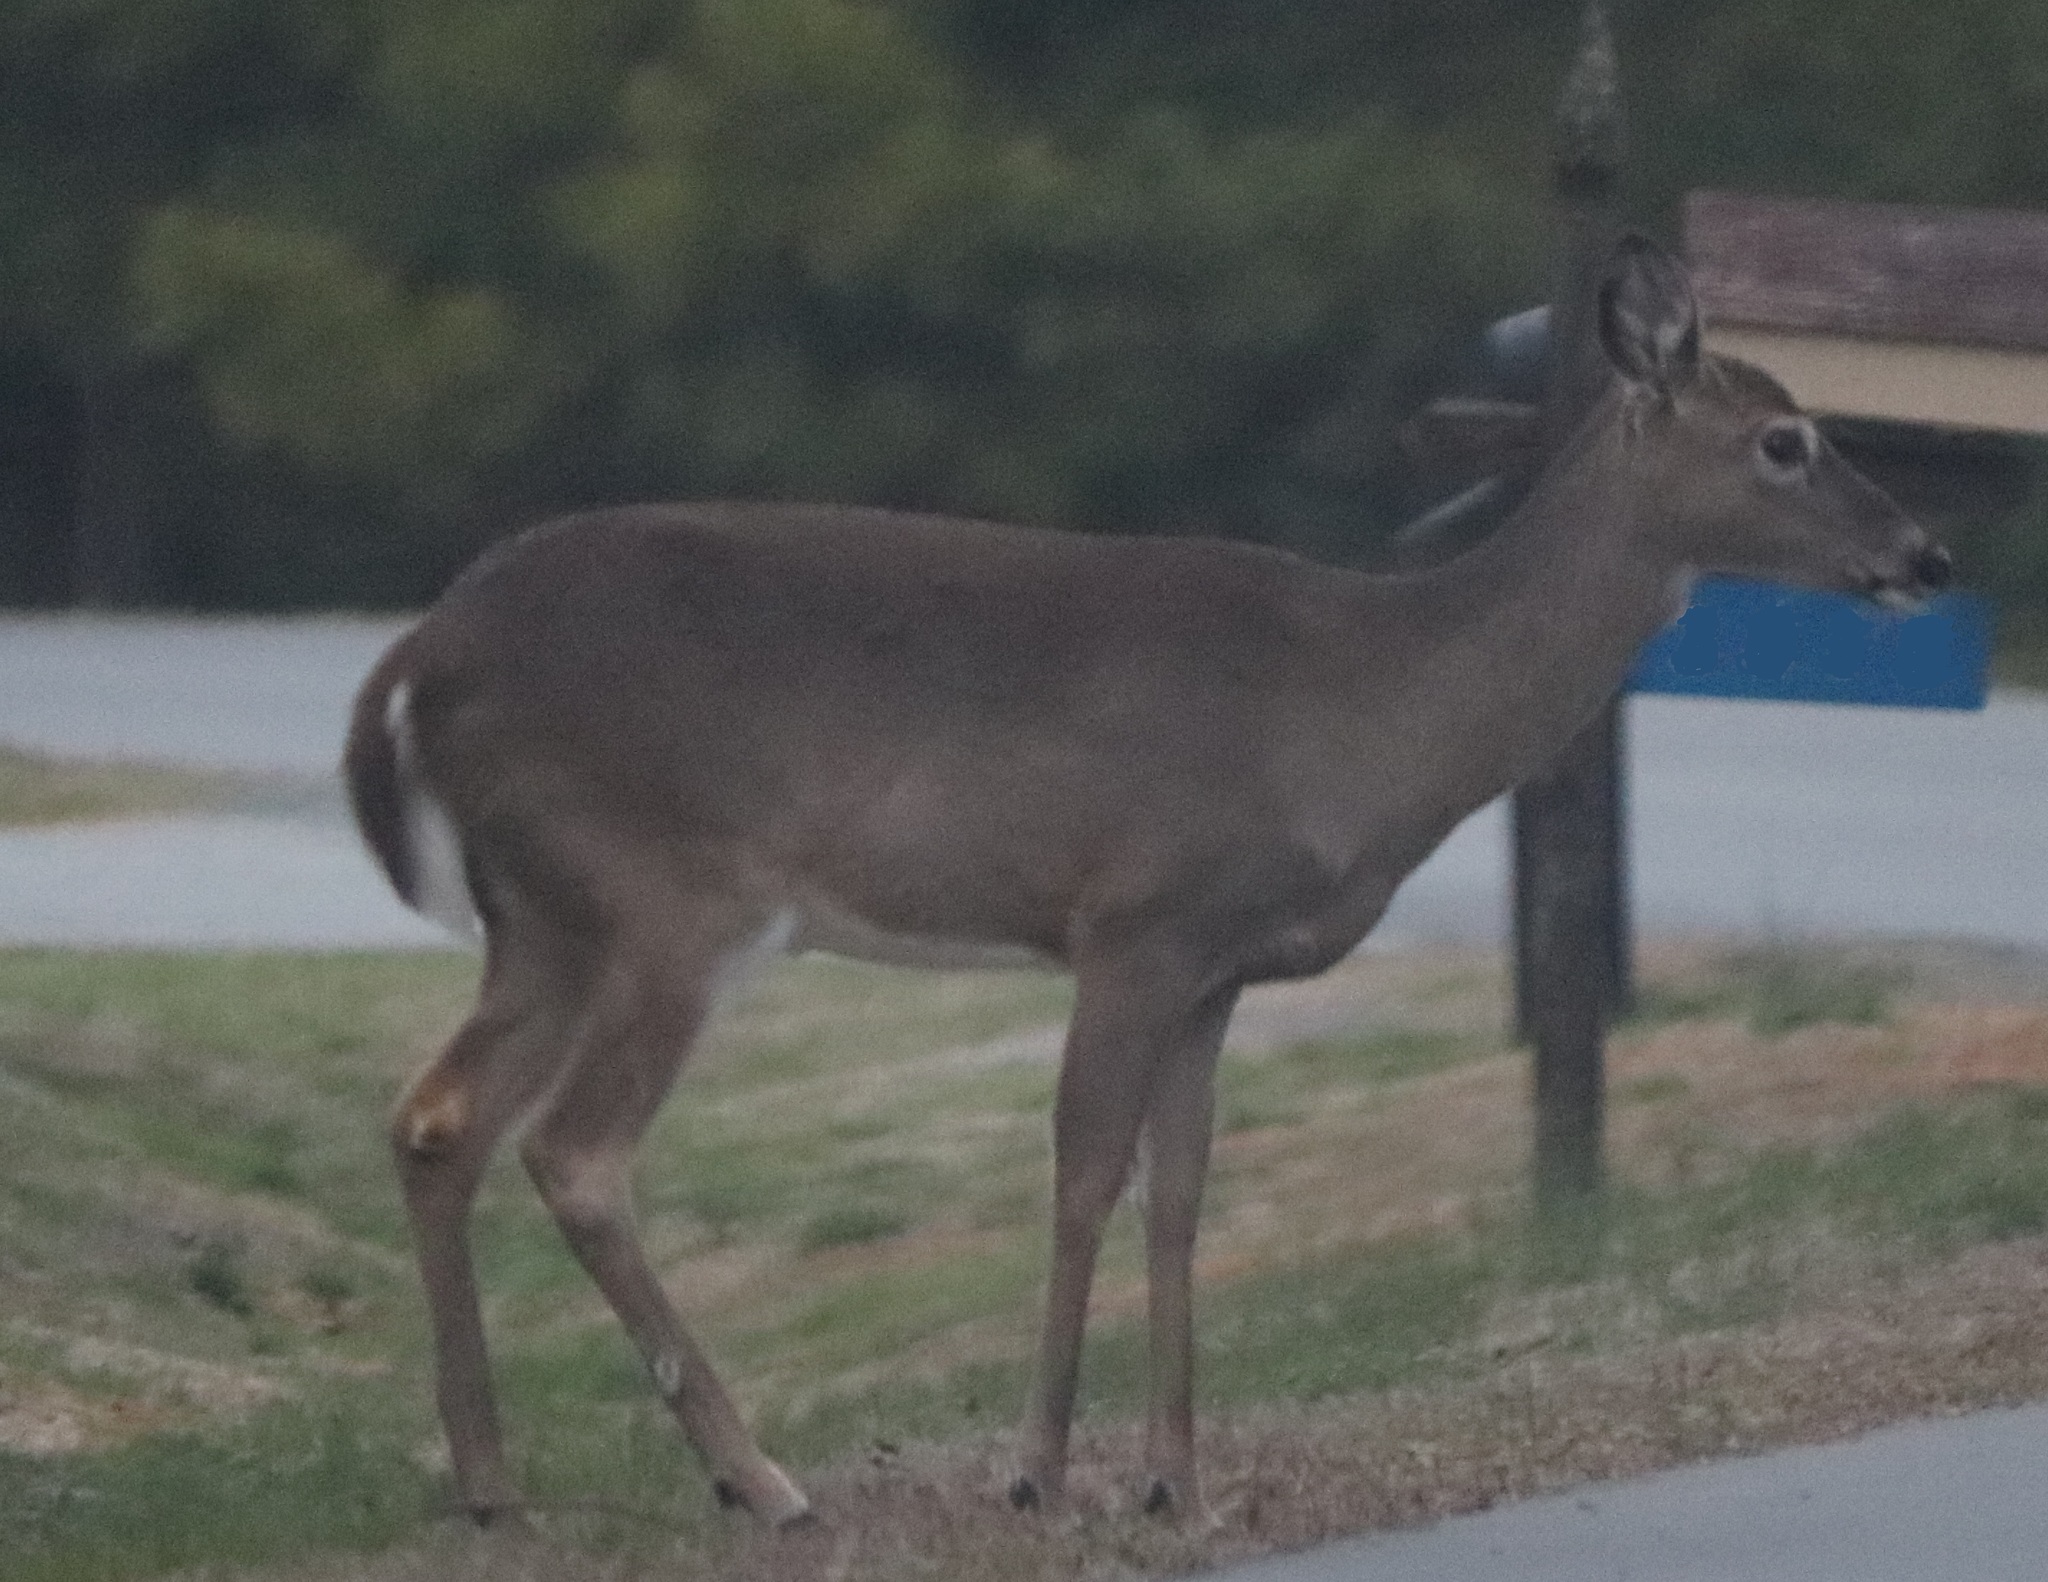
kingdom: Animalia
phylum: Chordata
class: Mammalia
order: Artiodactyla
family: Cervidae
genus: Odocoileus
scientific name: Odocoileus virginianus
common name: White-tailed deer
